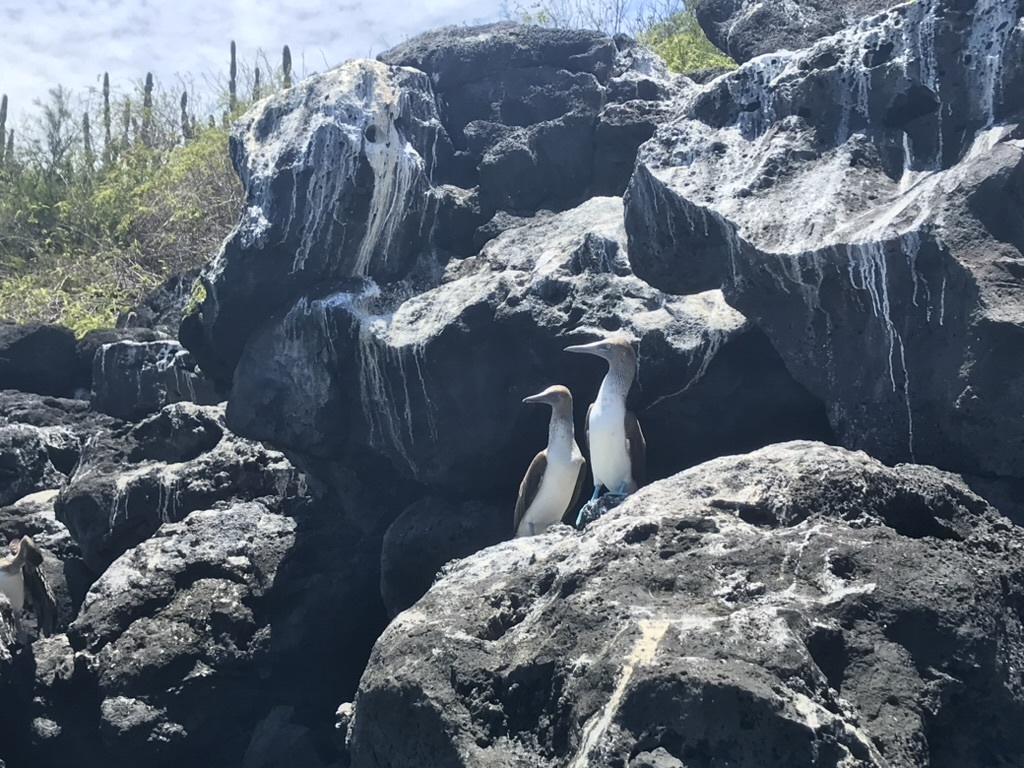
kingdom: Animalia
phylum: Chordata
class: Aves
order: Suliformes
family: Sulidae
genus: Sula
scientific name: Sula nebouxii
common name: Blue-footed booby
